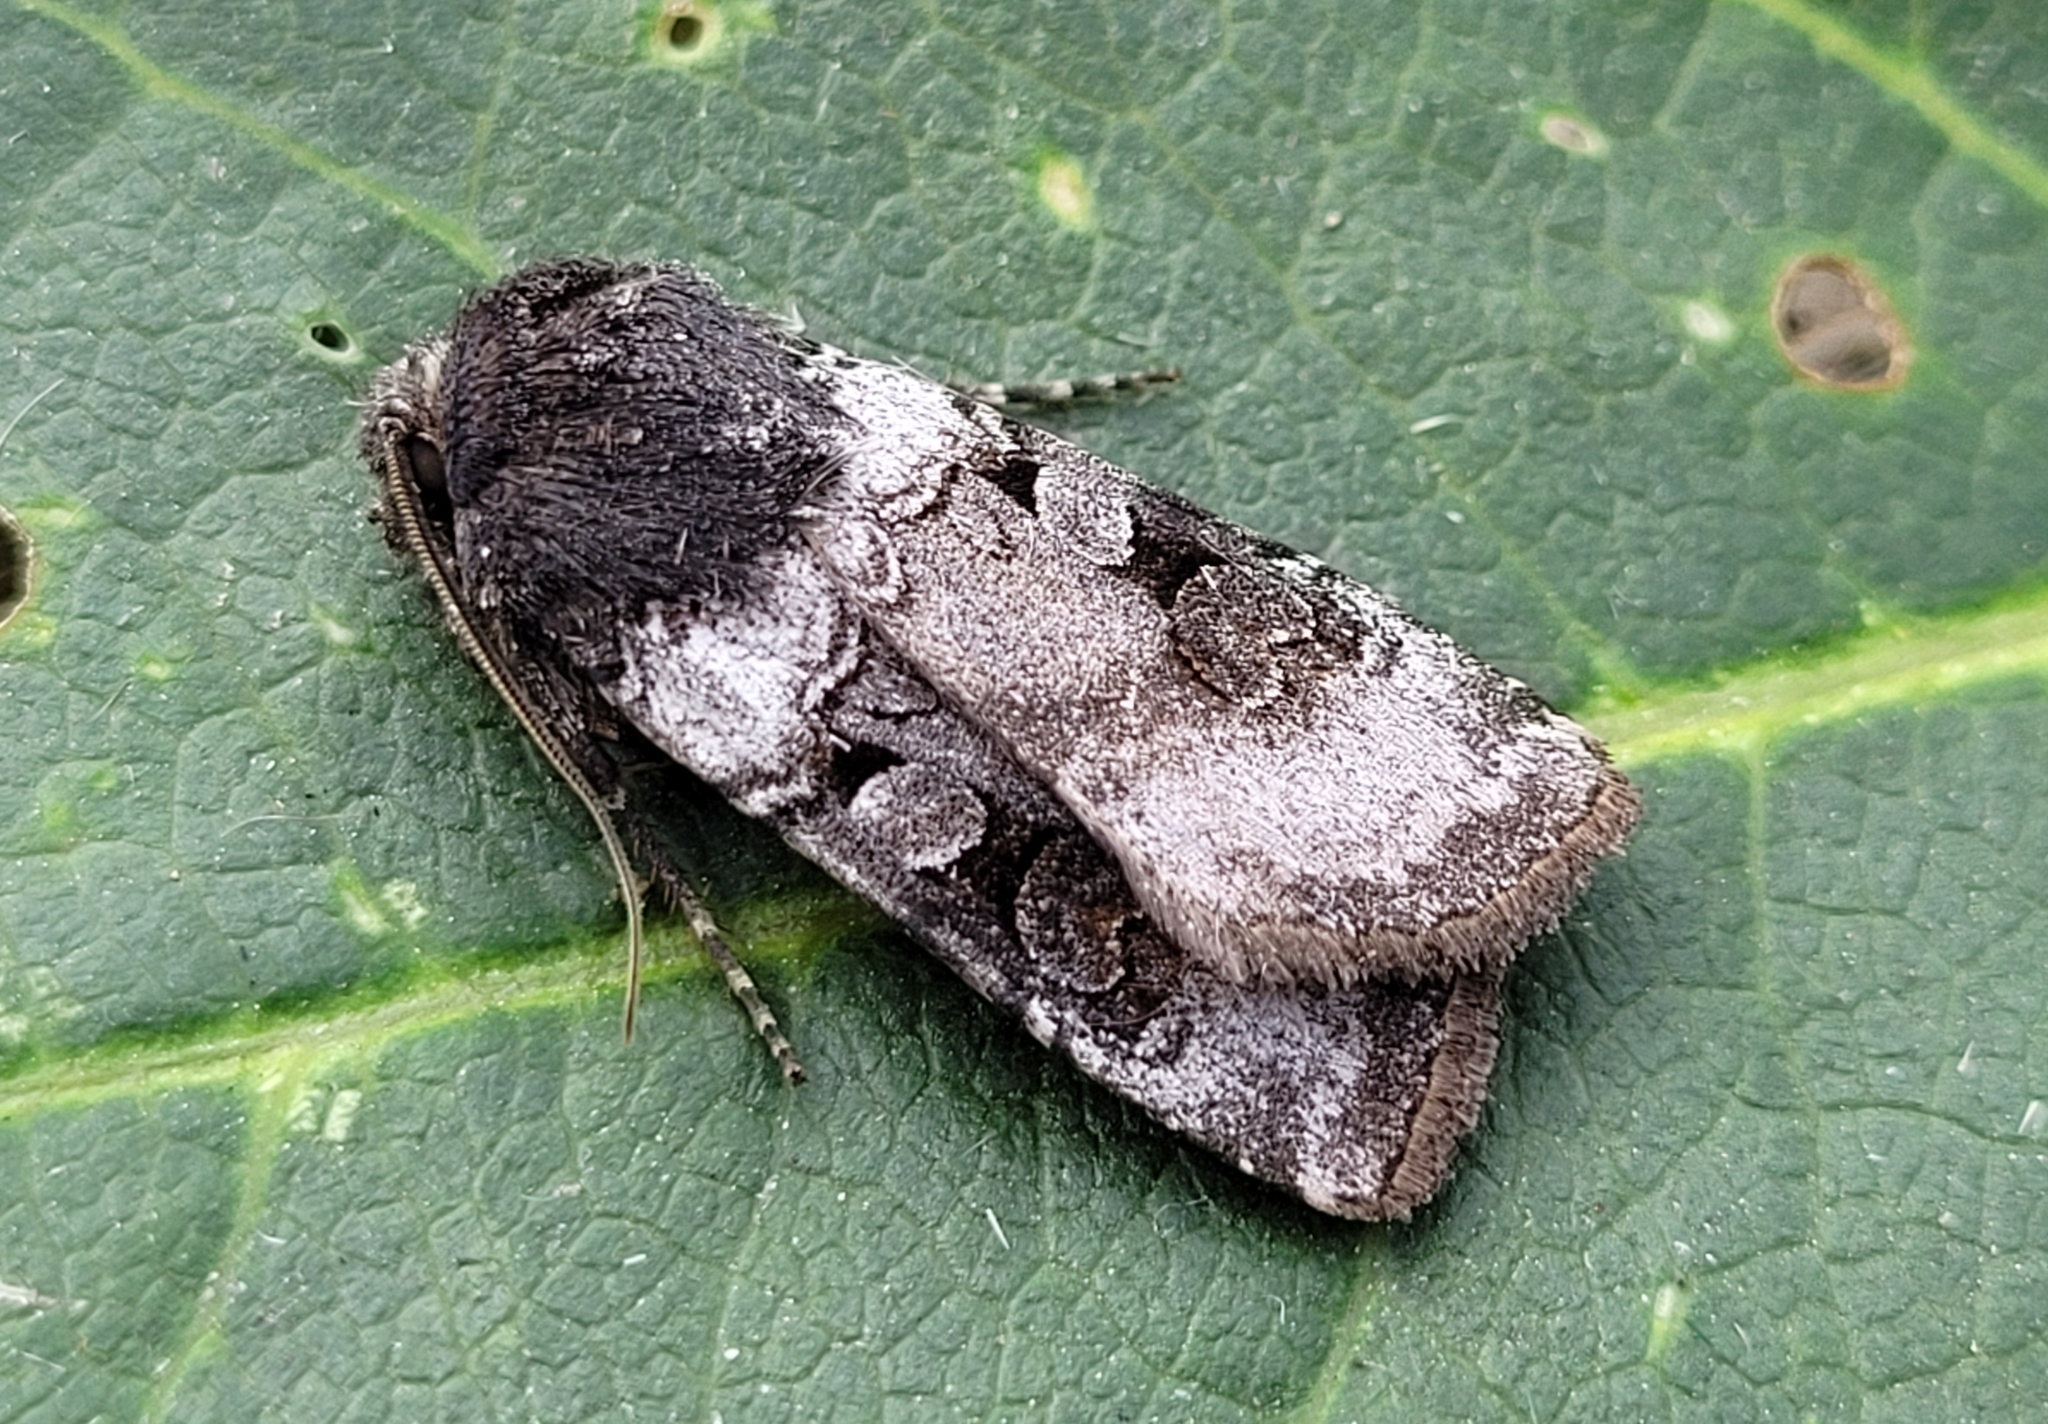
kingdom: Animalia
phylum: Arthropoda
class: Insecta
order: Lepidoptera
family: Noctuidae
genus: Euxoa
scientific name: Euxoa albipennis
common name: White-striped dart
